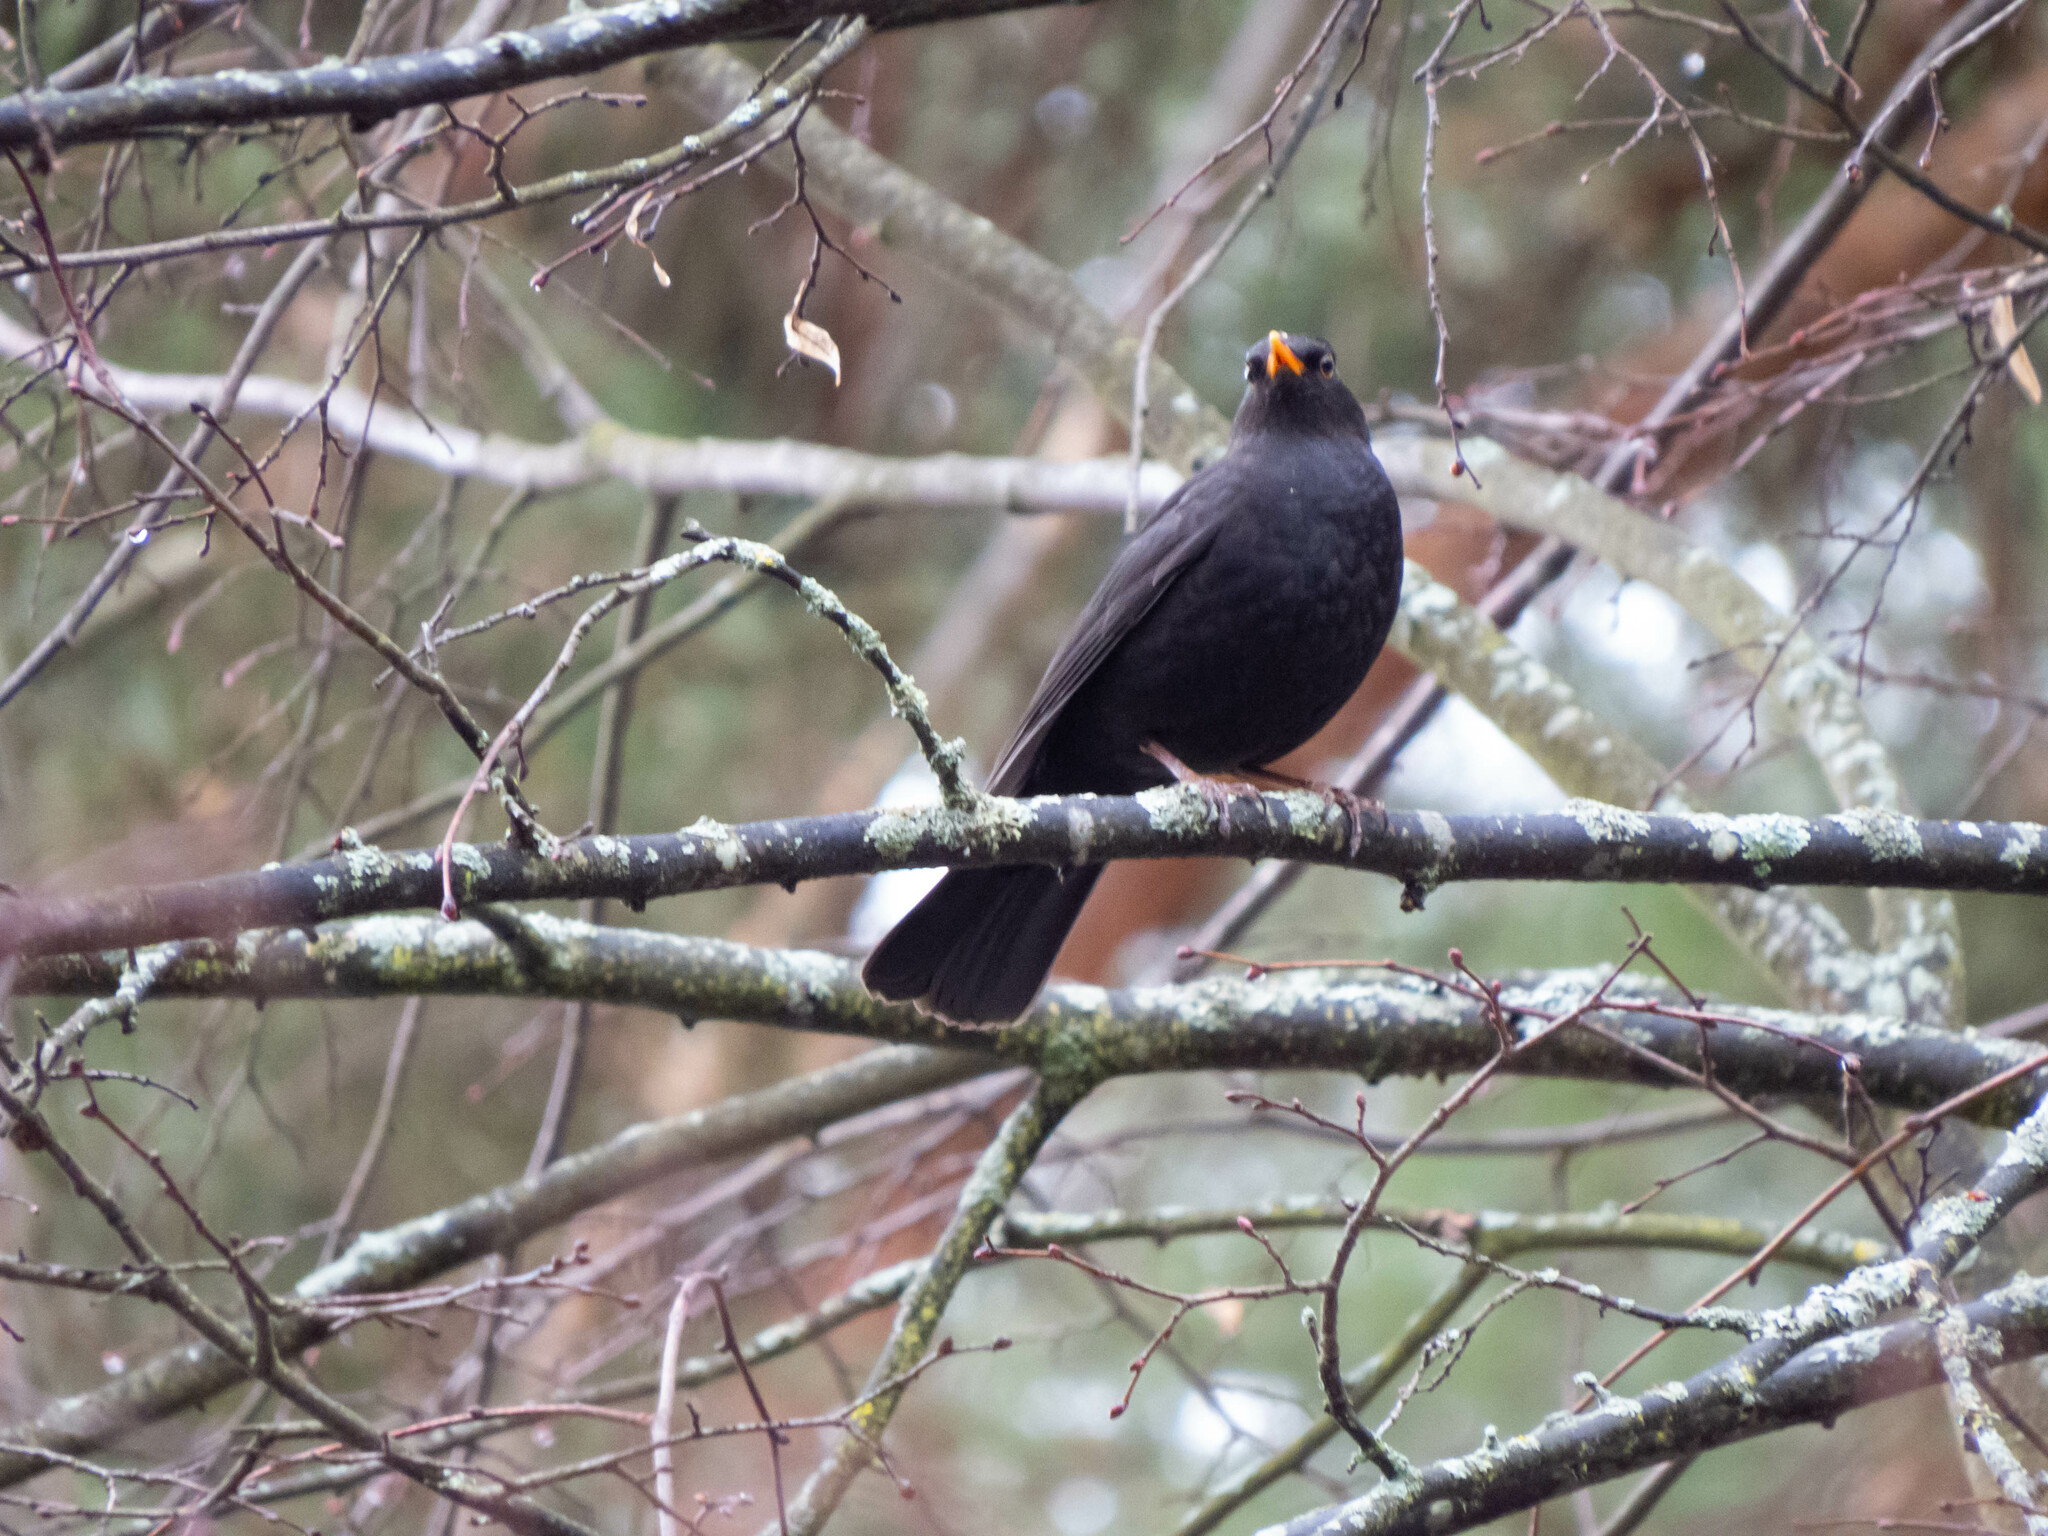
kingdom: Animalia
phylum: Chordata
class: Aves
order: Passeriformes
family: Turdidae
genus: Turdus
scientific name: Turdus merula
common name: Common blackbird
